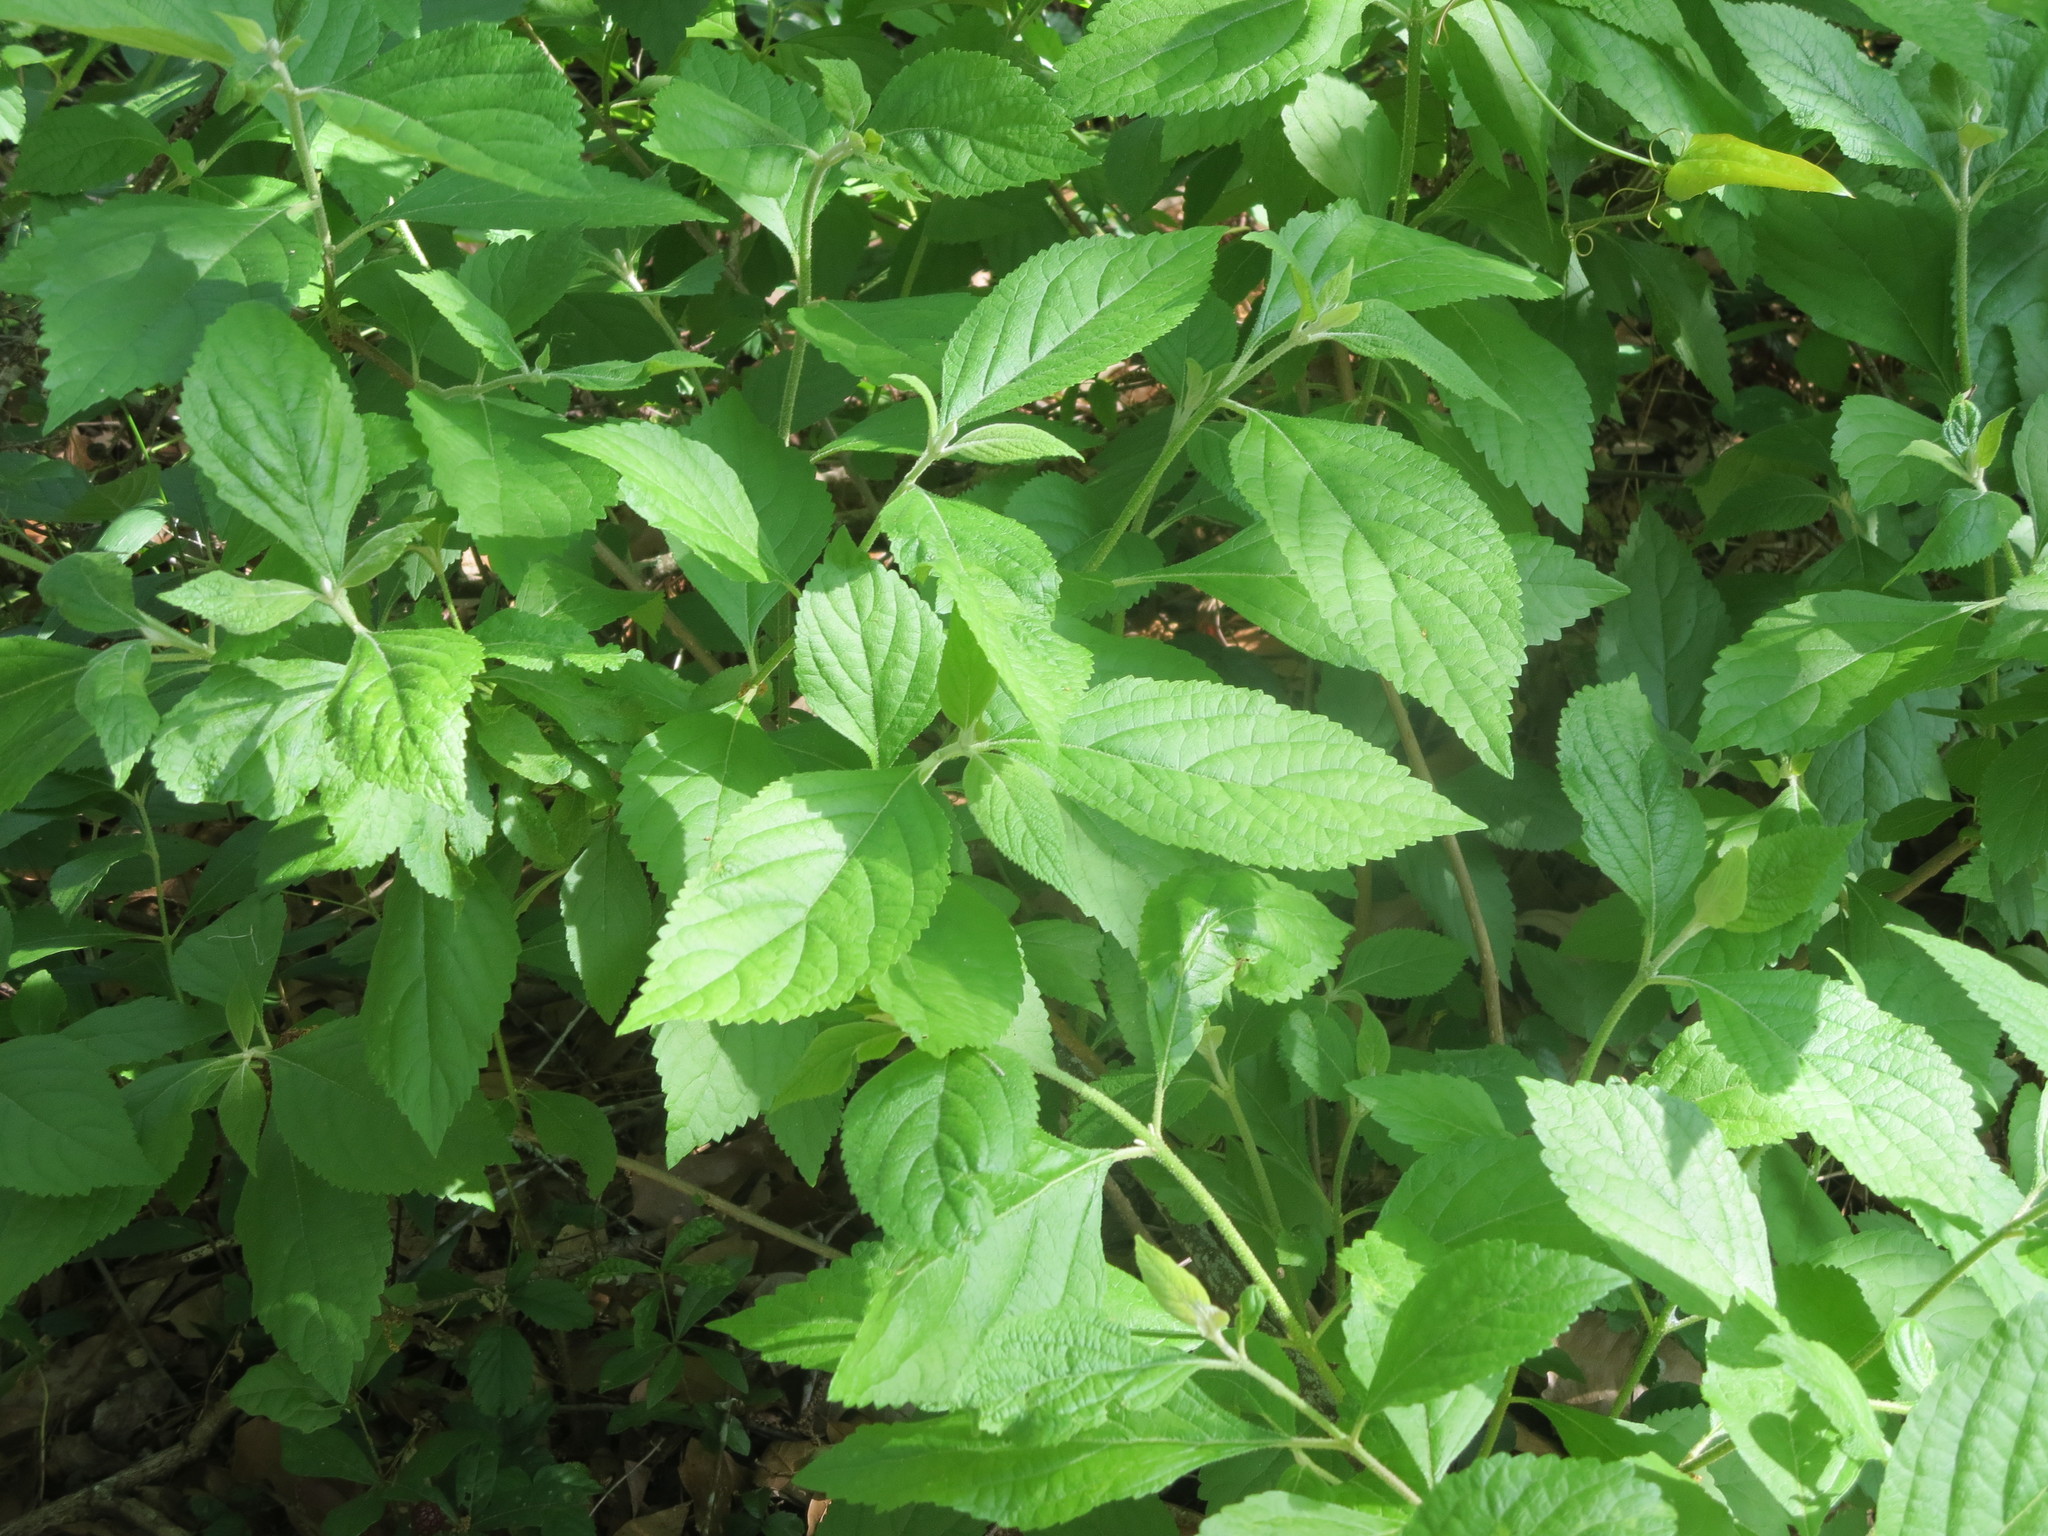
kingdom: Plantae
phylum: Tracheophyta
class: Magnoliopsida
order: Lamiales
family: Lamiaceae
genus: Callicarpa
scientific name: Callicarpa americana
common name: American beautyberry
